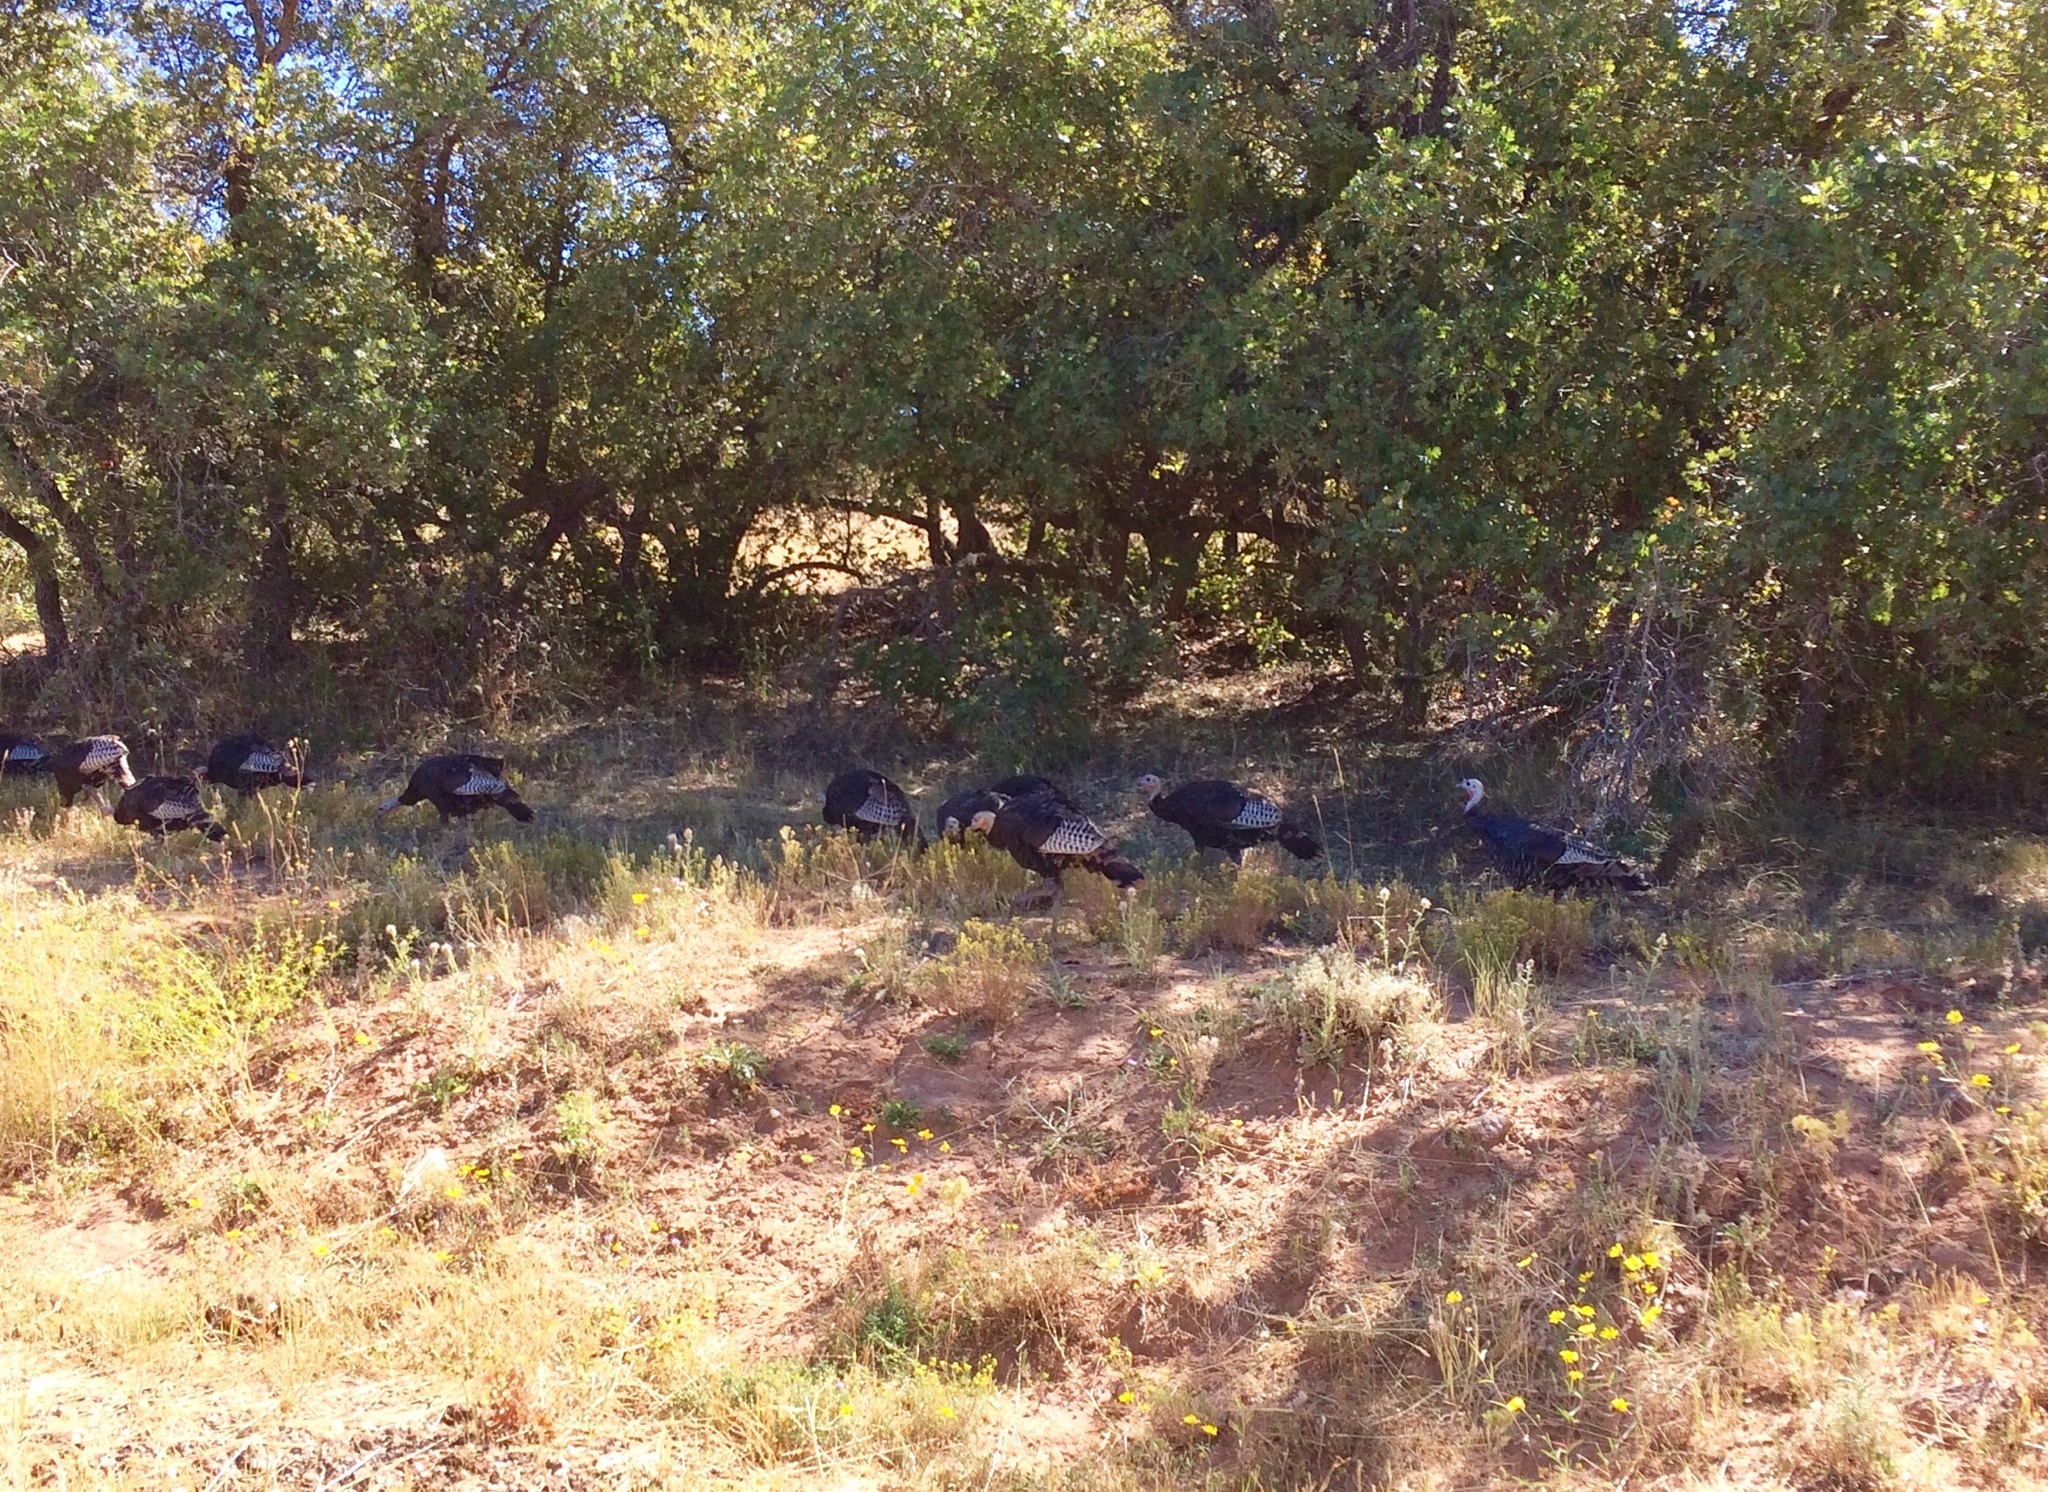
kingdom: Animalia
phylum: Chordata
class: Aves
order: Galliformes
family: Phasianidae
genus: Meleagris
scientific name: Meleagris gallopavo
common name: Wild turkey
